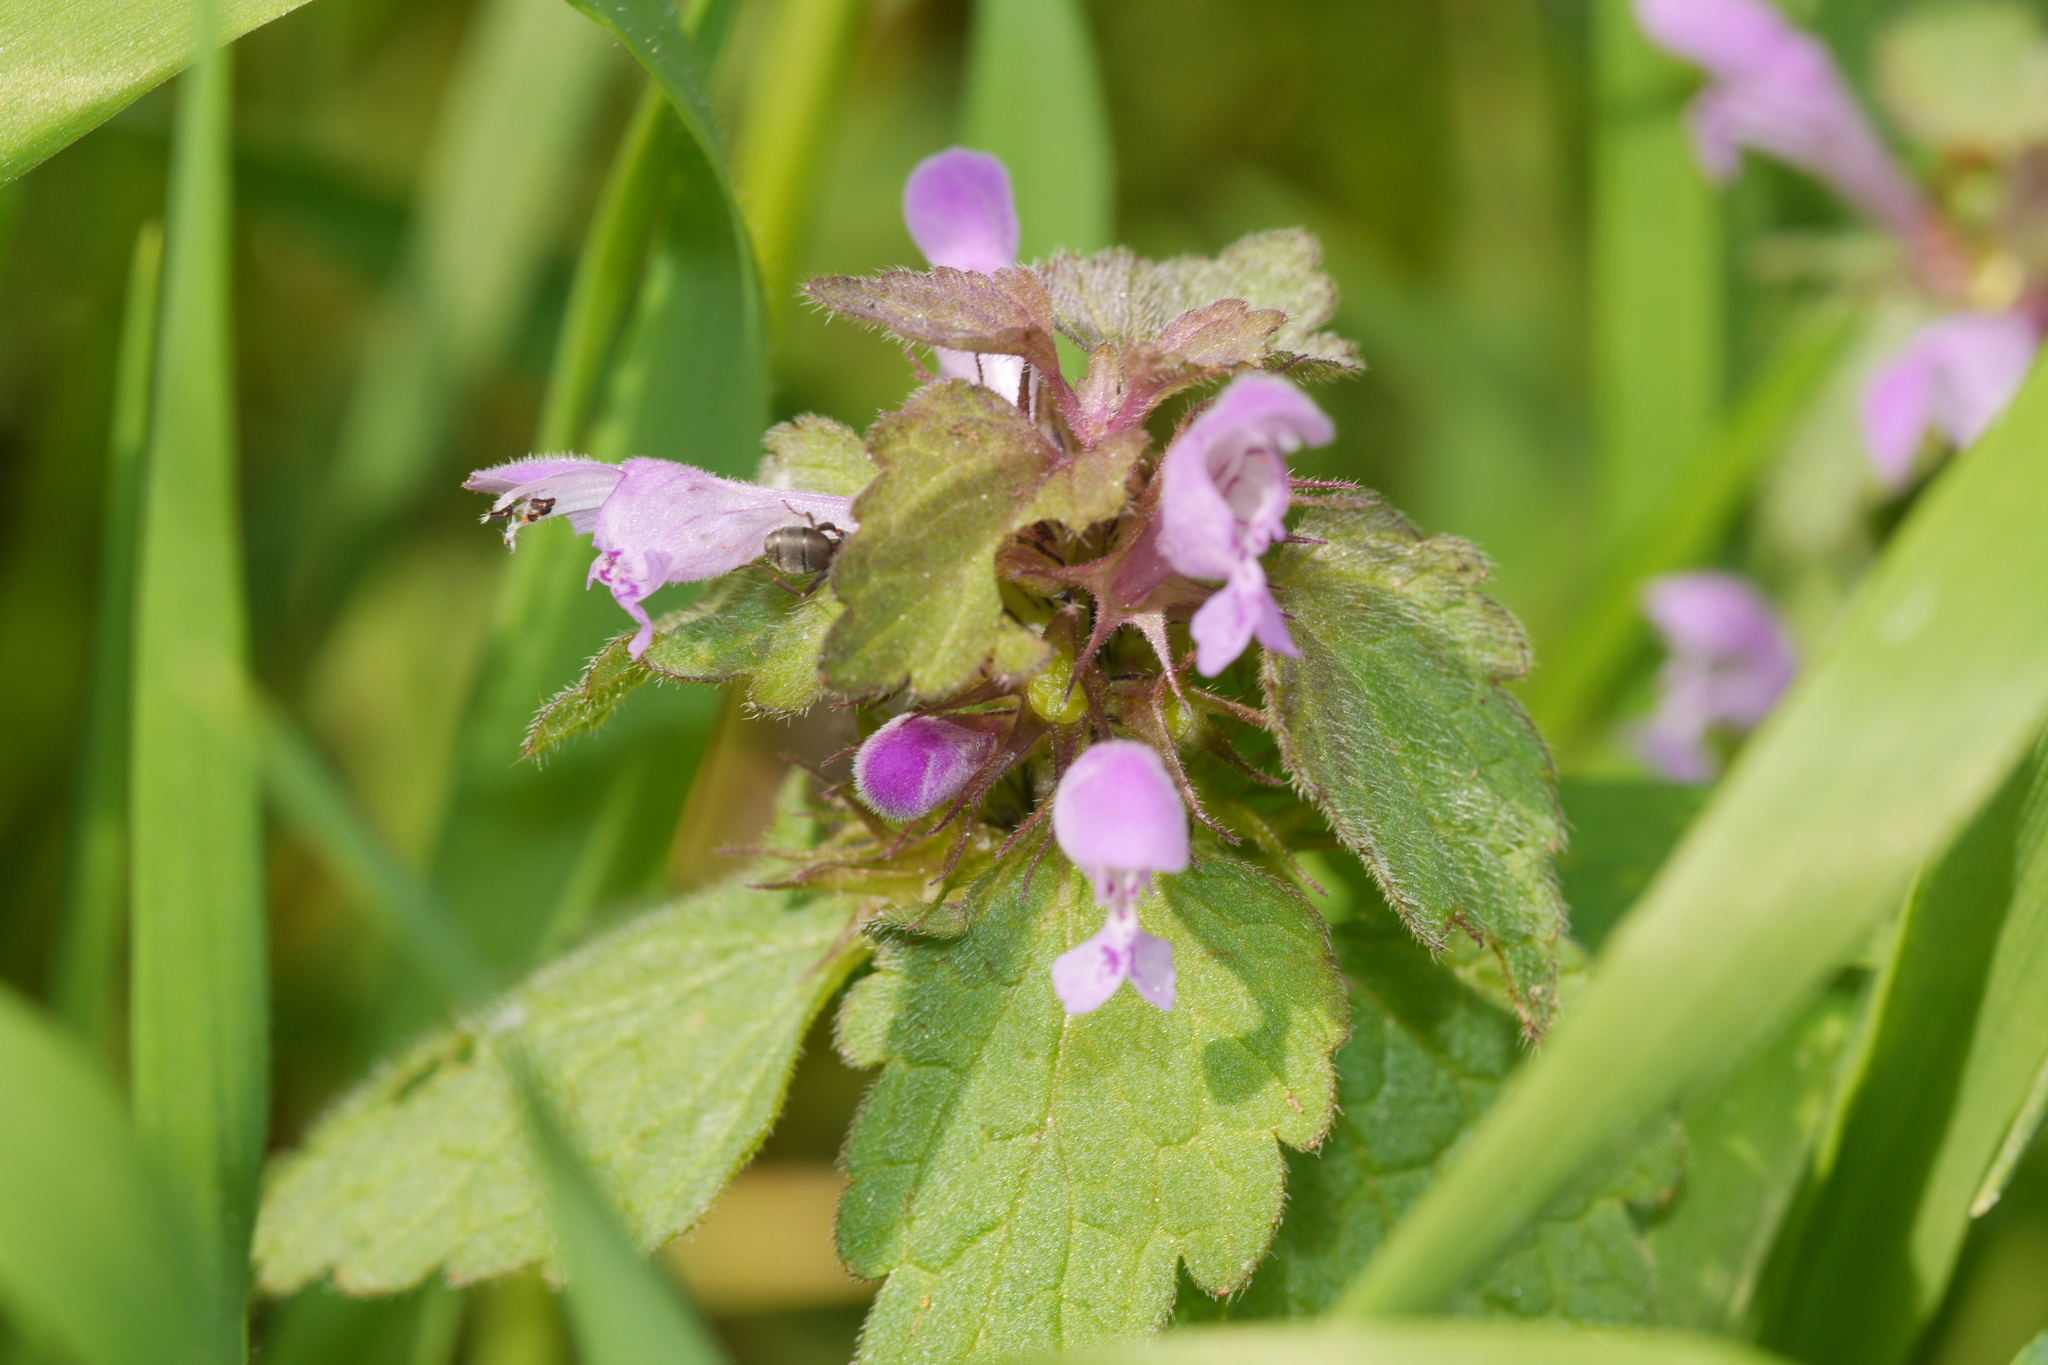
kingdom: Plantae
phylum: Tracheophyta
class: Magnoliopsida
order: Lamiales
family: Lamiaceae
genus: Lamium
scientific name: Lamium purpureum
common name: Red dead-nettle
